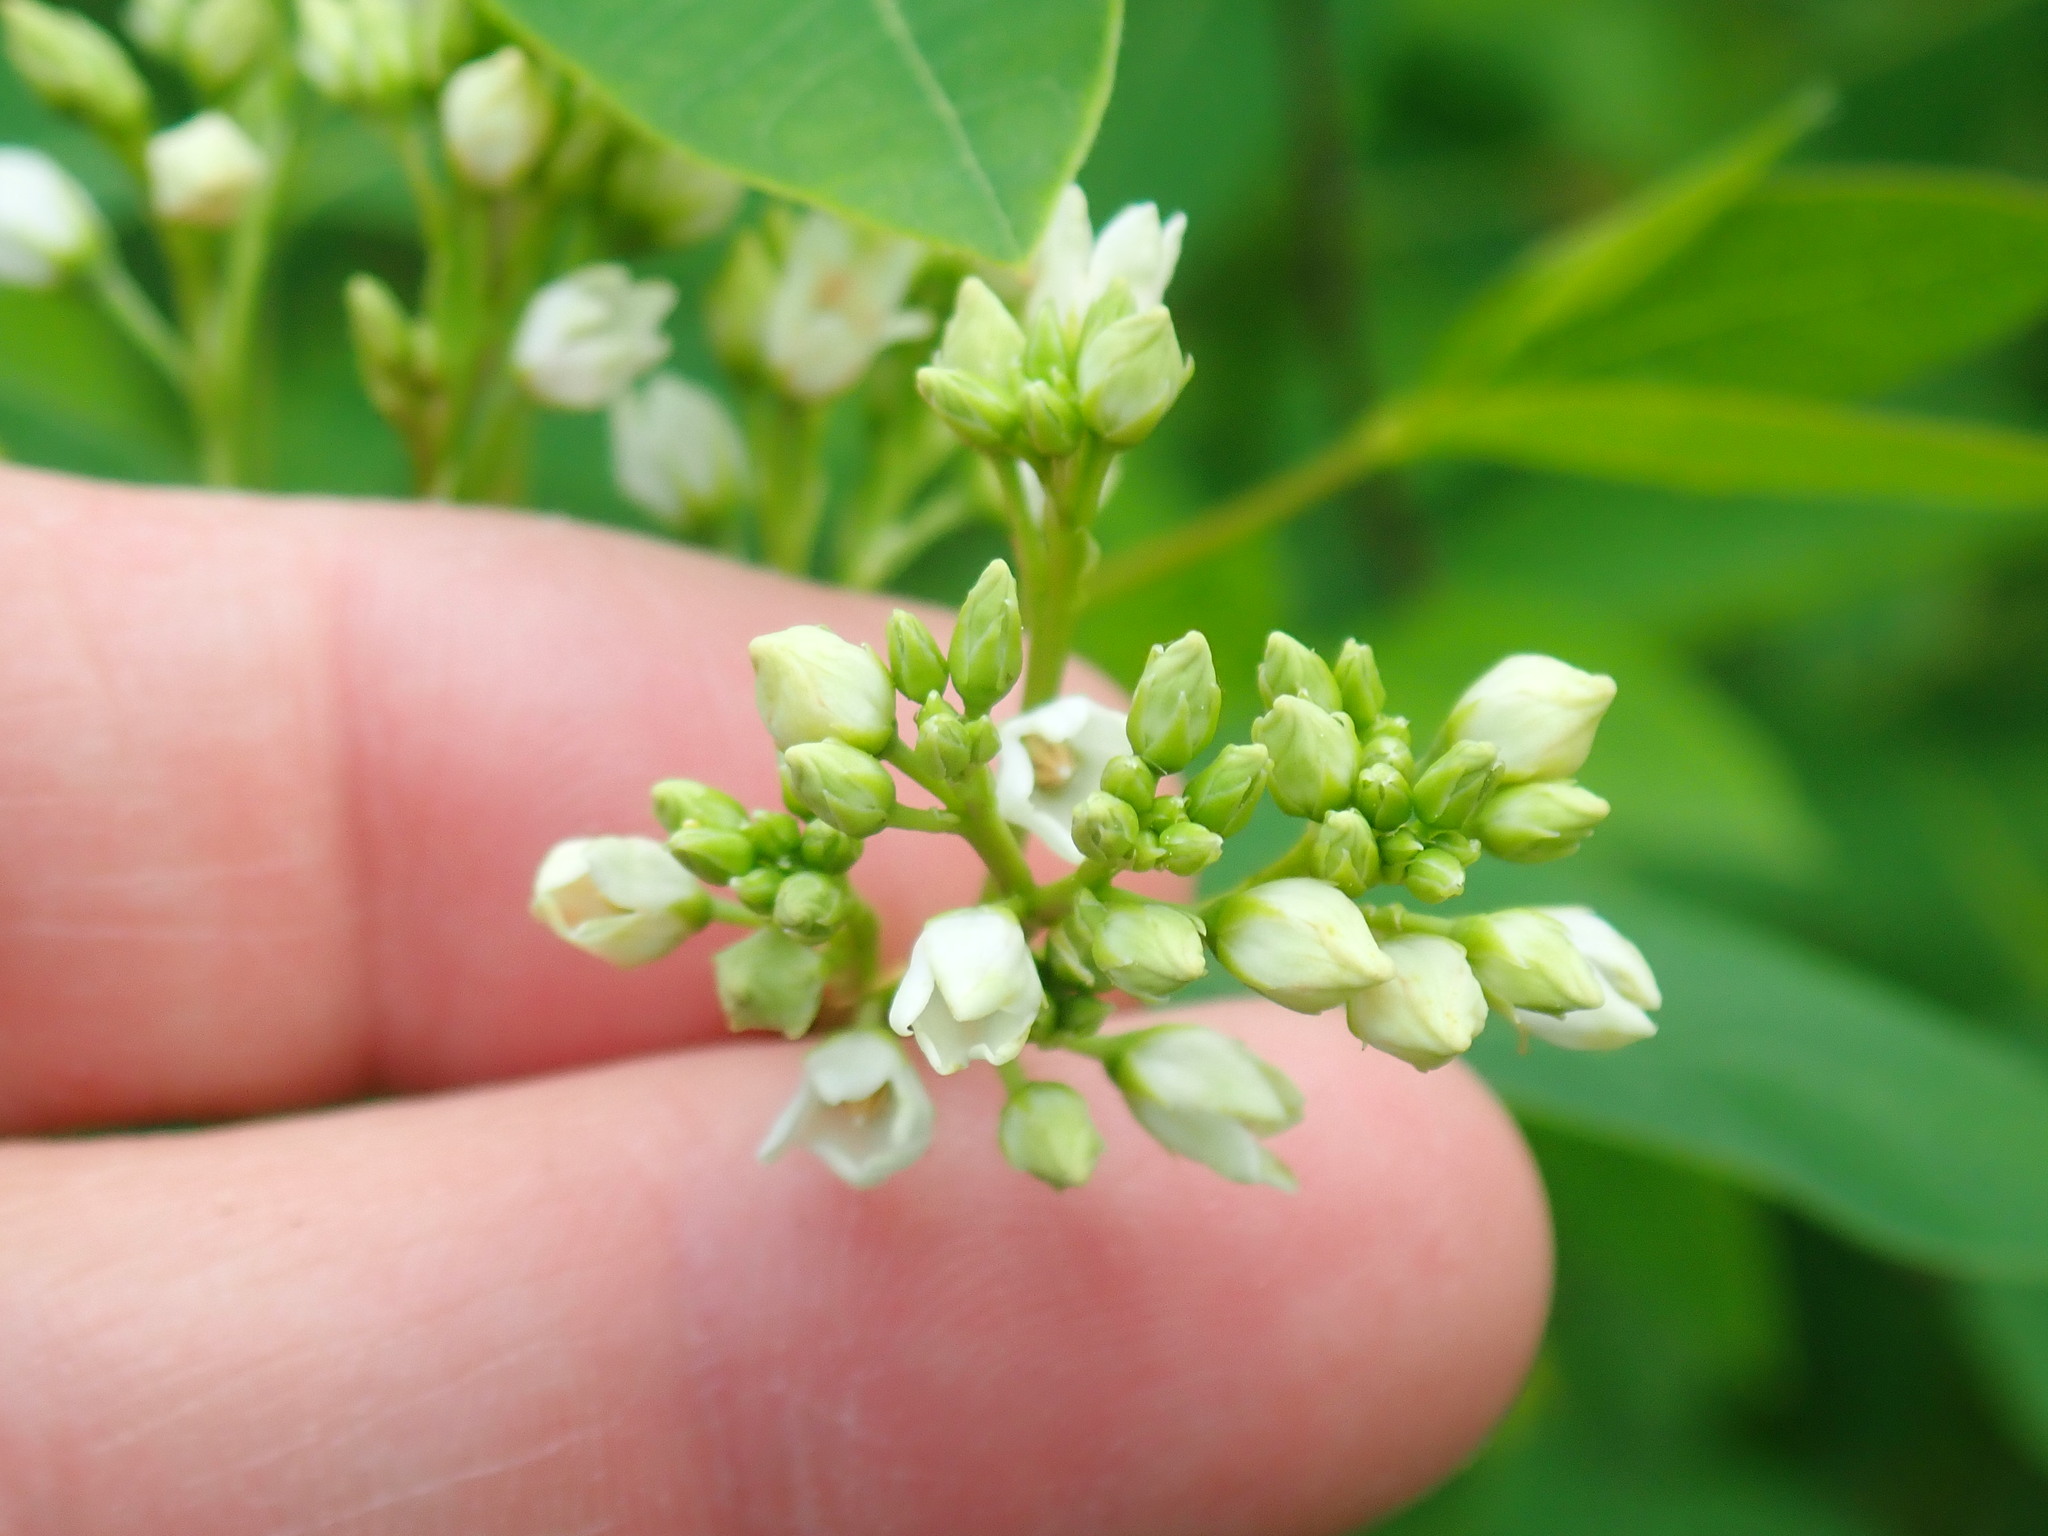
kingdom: Plantae
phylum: Tracheophyta
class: Magnoliopsida
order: Gentianales
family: Apocynaceae
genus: Apocynum
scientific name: Apocynum cannabinum
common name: Hemp dogbane
